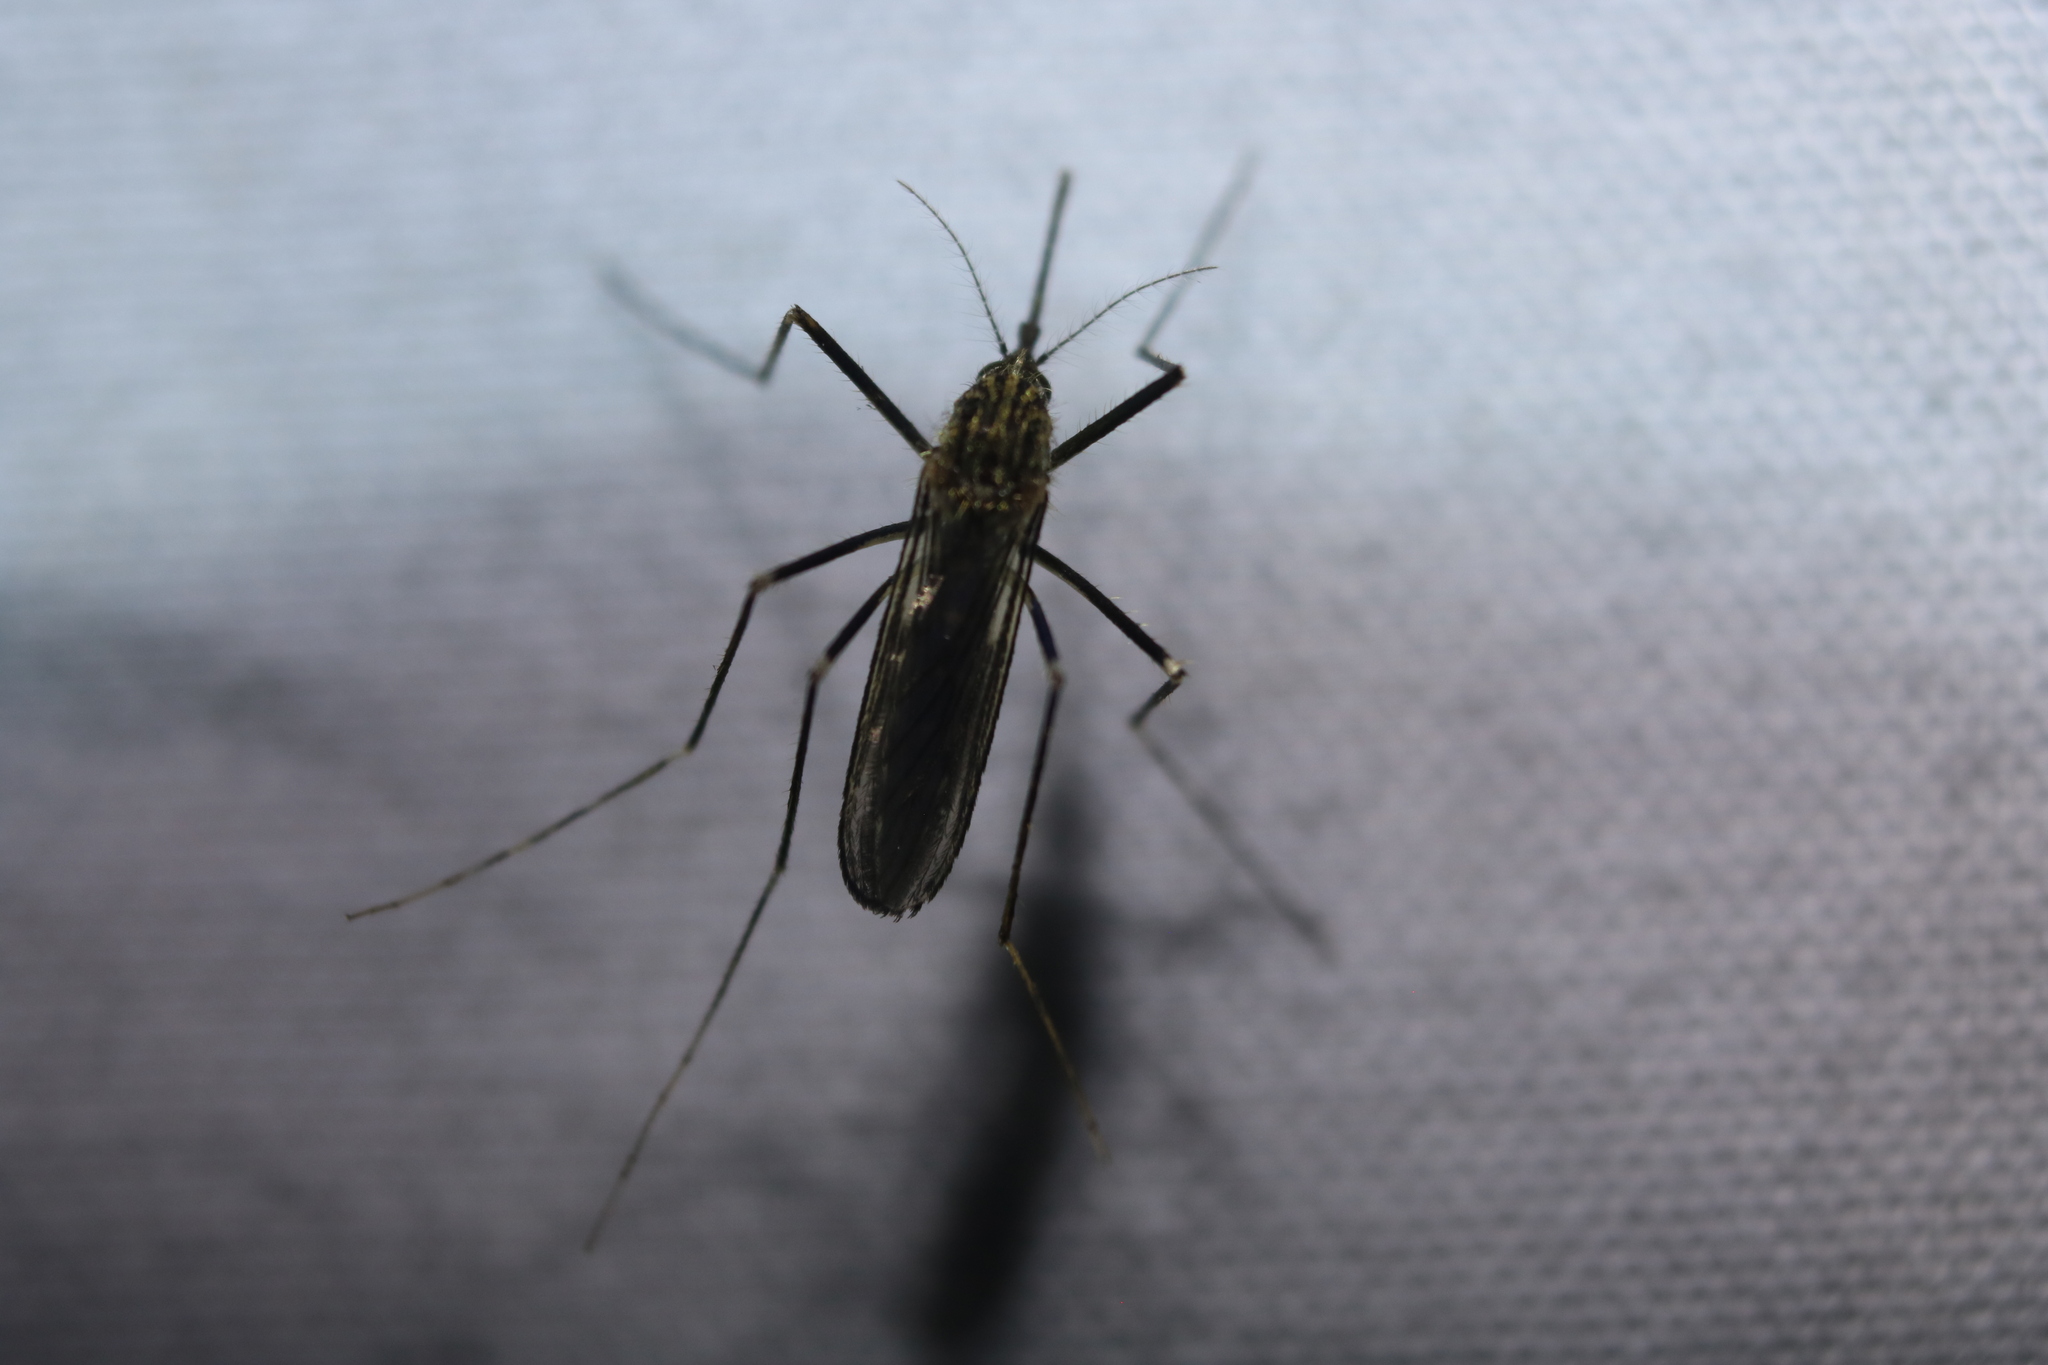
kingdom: Animalia
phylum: Arthropoda
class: Insecta
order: Diptera
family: Culicidae
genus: Aedes
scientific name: Aedes japonicus
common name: Asian bush mosquito
